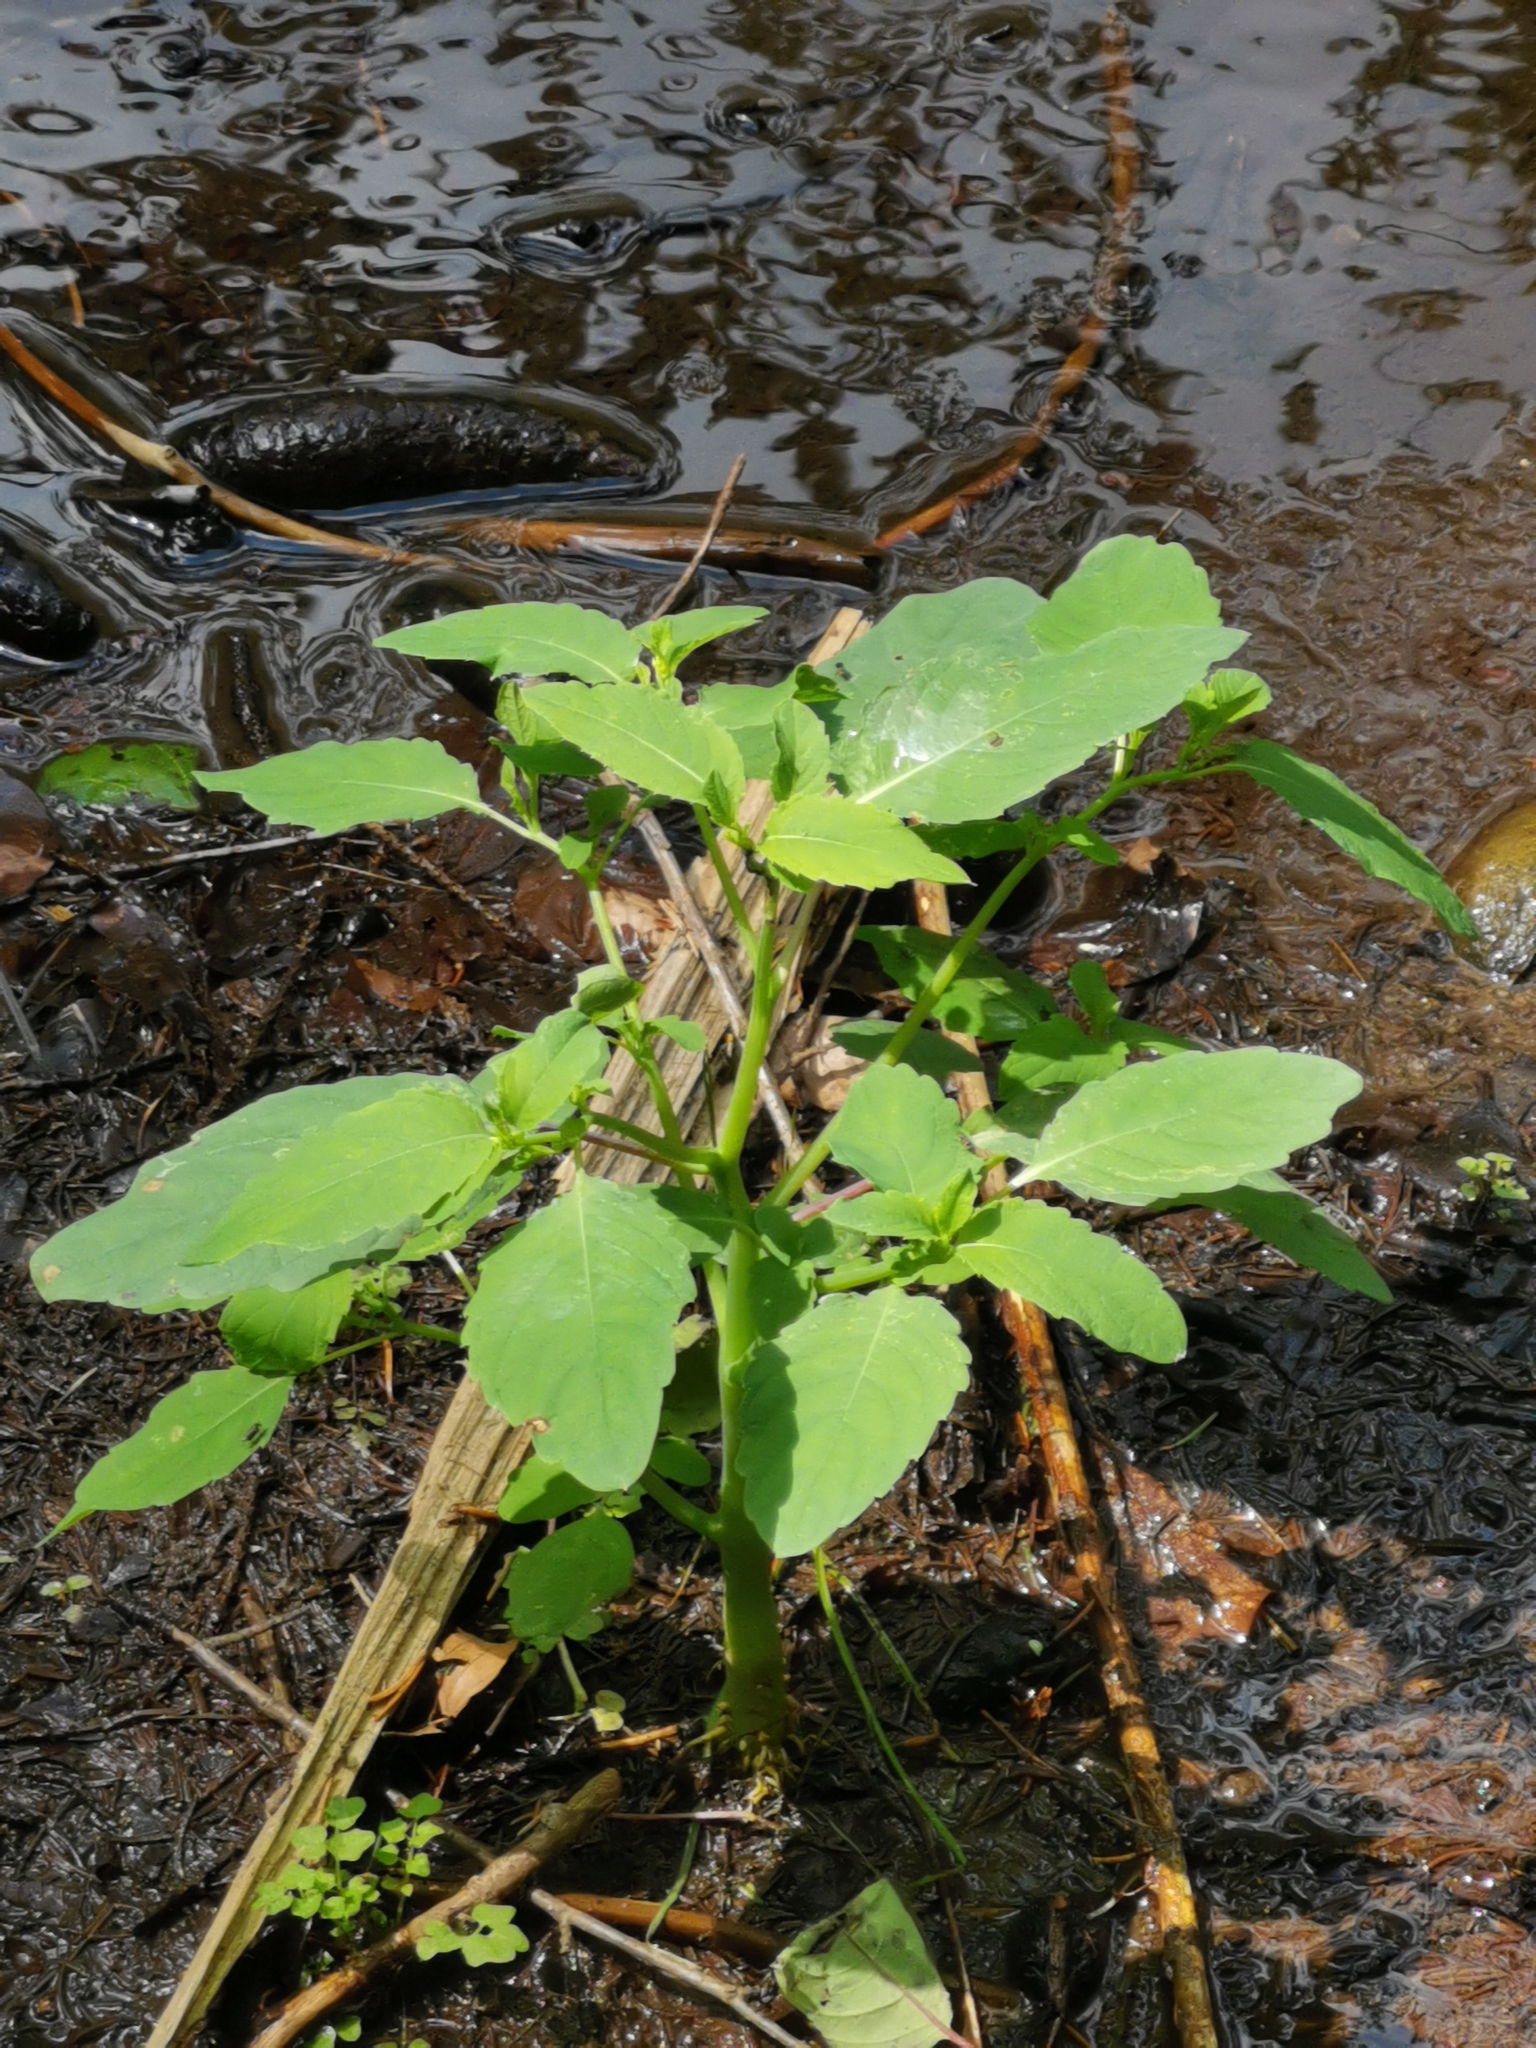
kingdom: Plantae
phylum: Tracheophyta
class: Magnoliopsida
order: Ericales
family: Balsaminaceae
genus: Impatiens
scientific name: Impatiens noli-tangere
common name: Touch-me-not balsam
